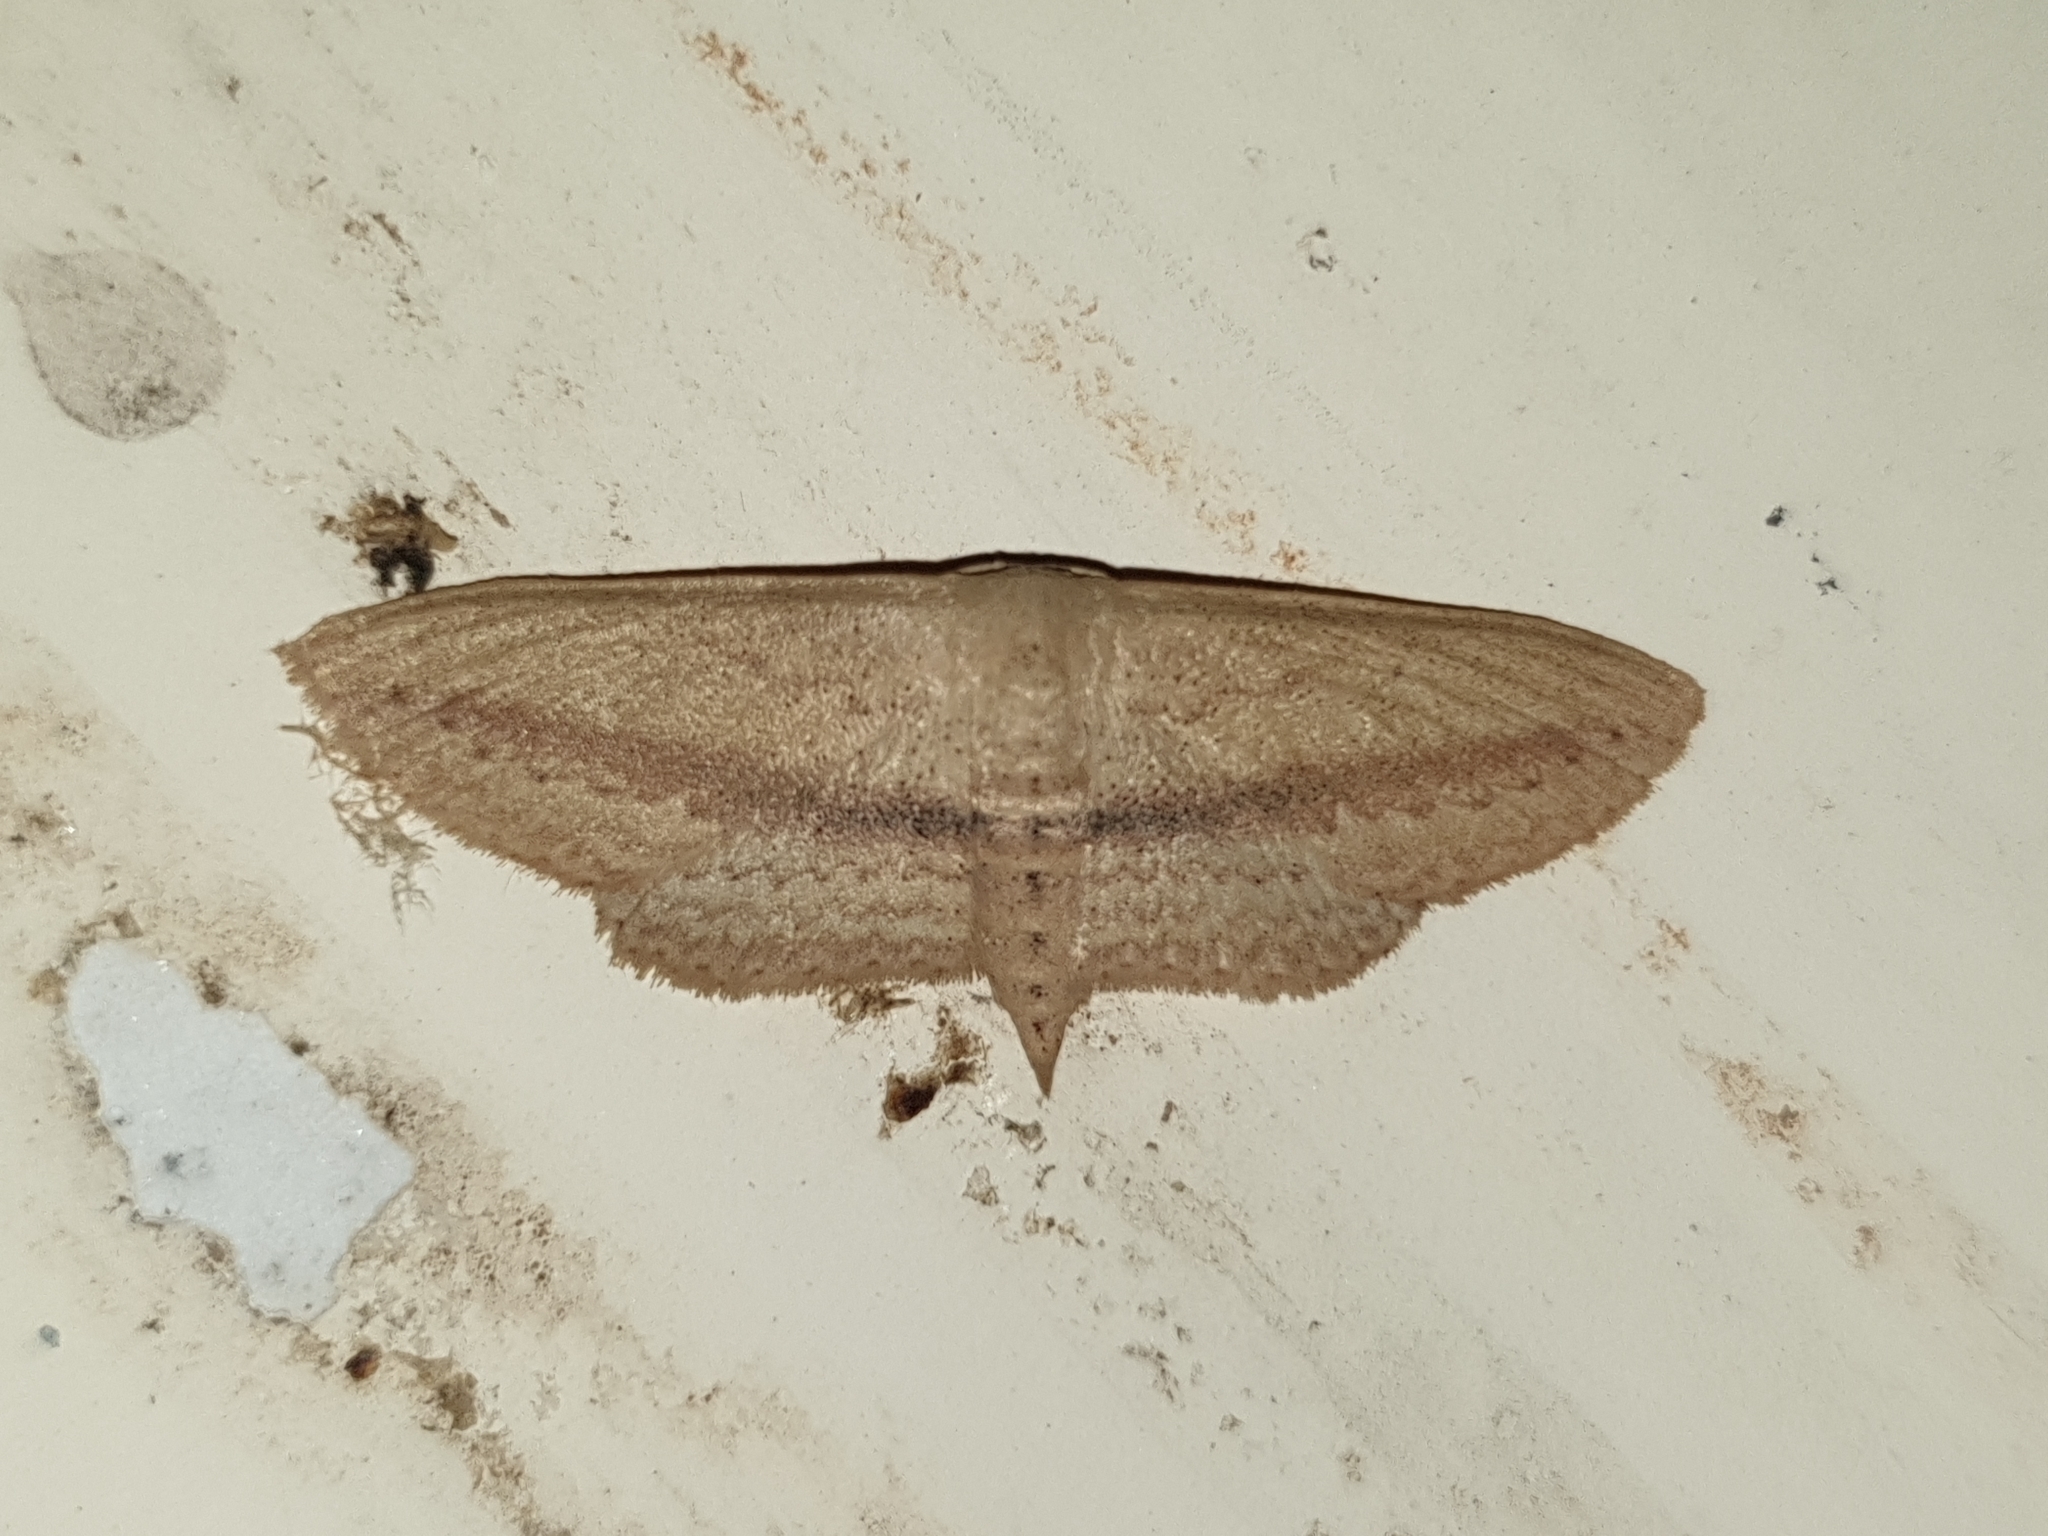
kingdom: Animalia
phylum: Arthropoda
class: Insecta
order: Lepidoptera
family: Geometridae
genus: Scopula
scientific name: Scopula emissaria
